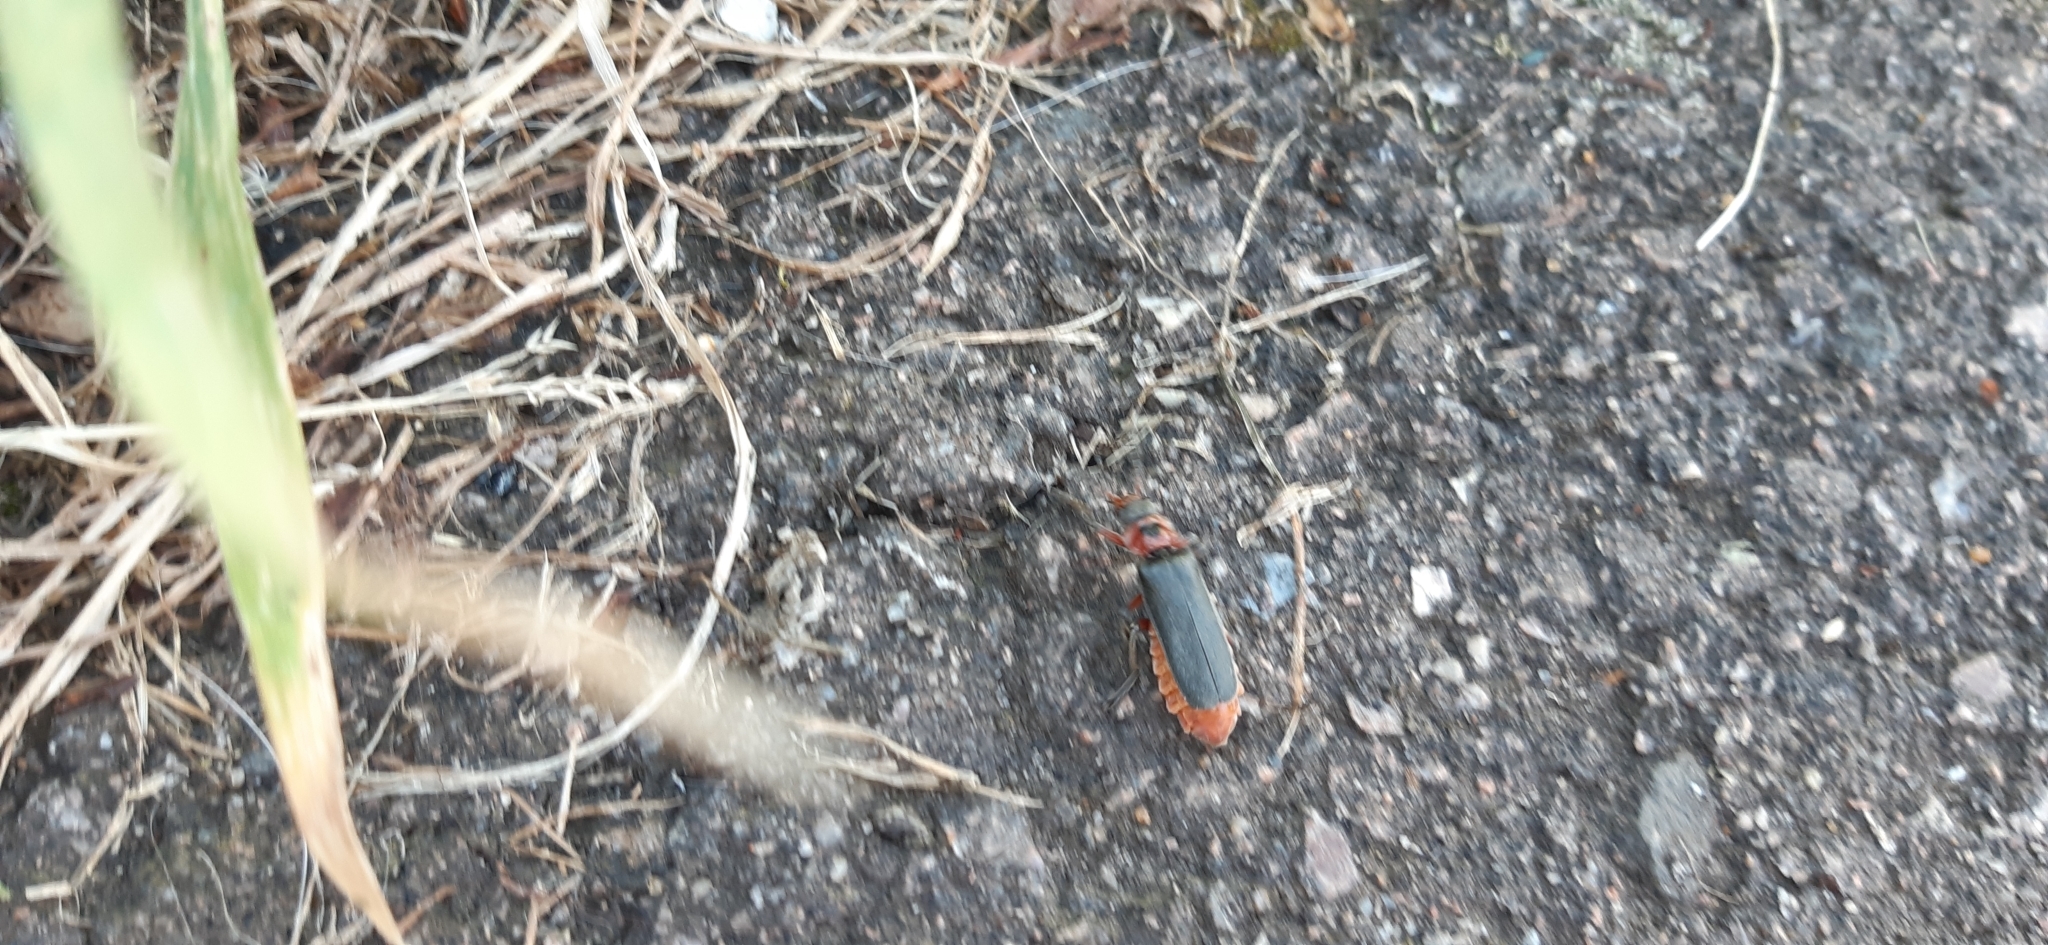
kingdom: Animalia
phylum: Arthropoda
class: Insecta
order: Coleoptera
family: Cantharidae
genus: Cantharis
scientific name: Cantharis rustica
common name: Soldier beetle
